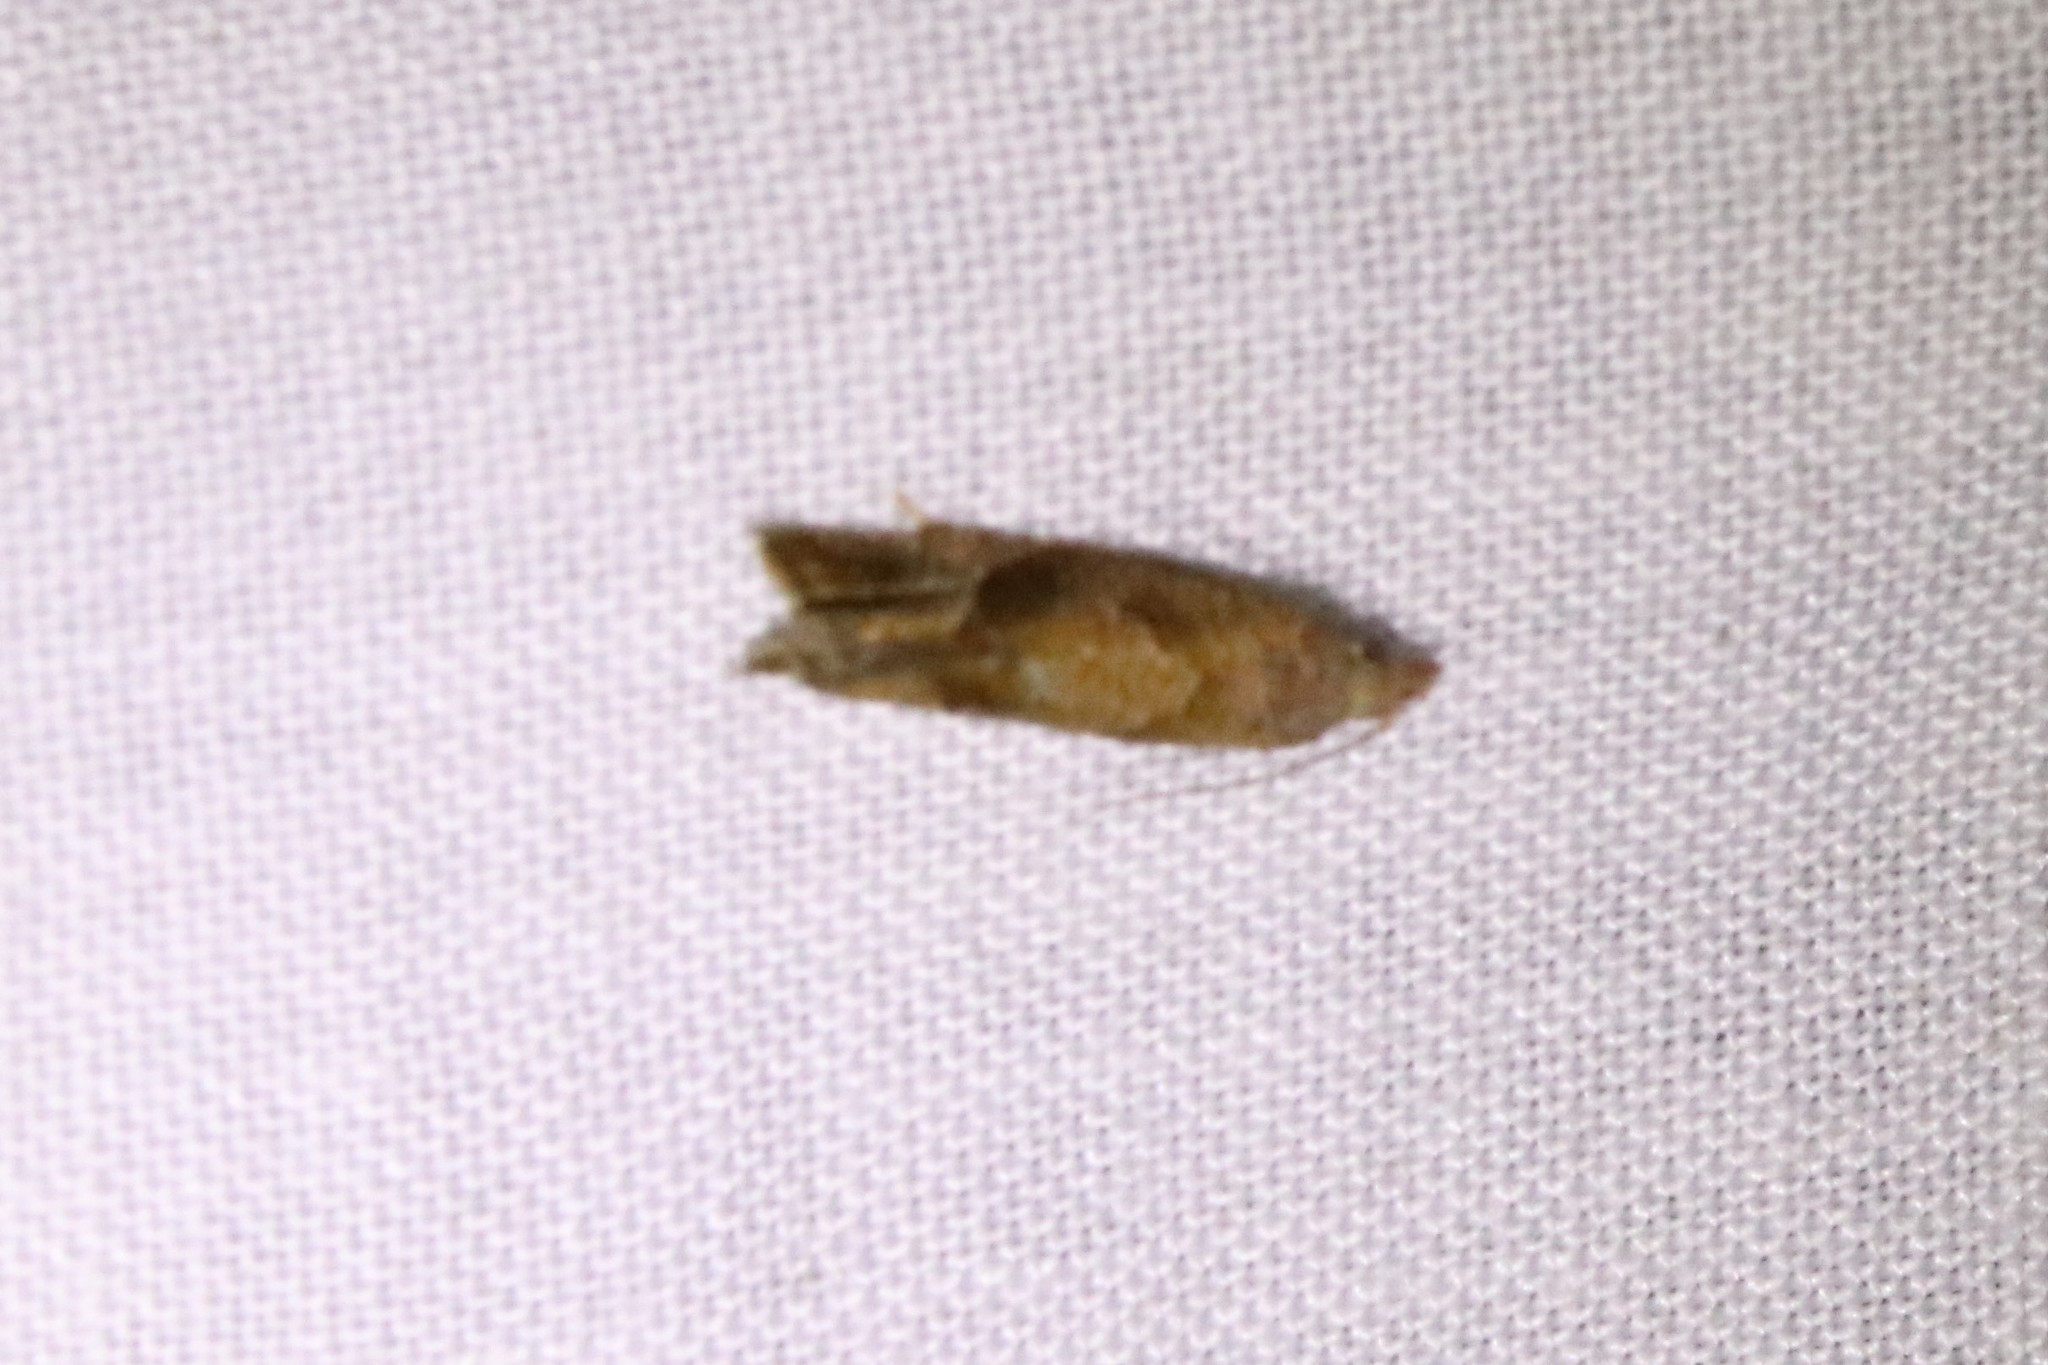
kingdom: Animalia
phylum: Arthropoda
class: Insecta
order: Lepidoptera
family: Tortricidae
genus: Pelochrista
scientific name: Pelochrista derelicta
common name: Derelict pelochrista moth
